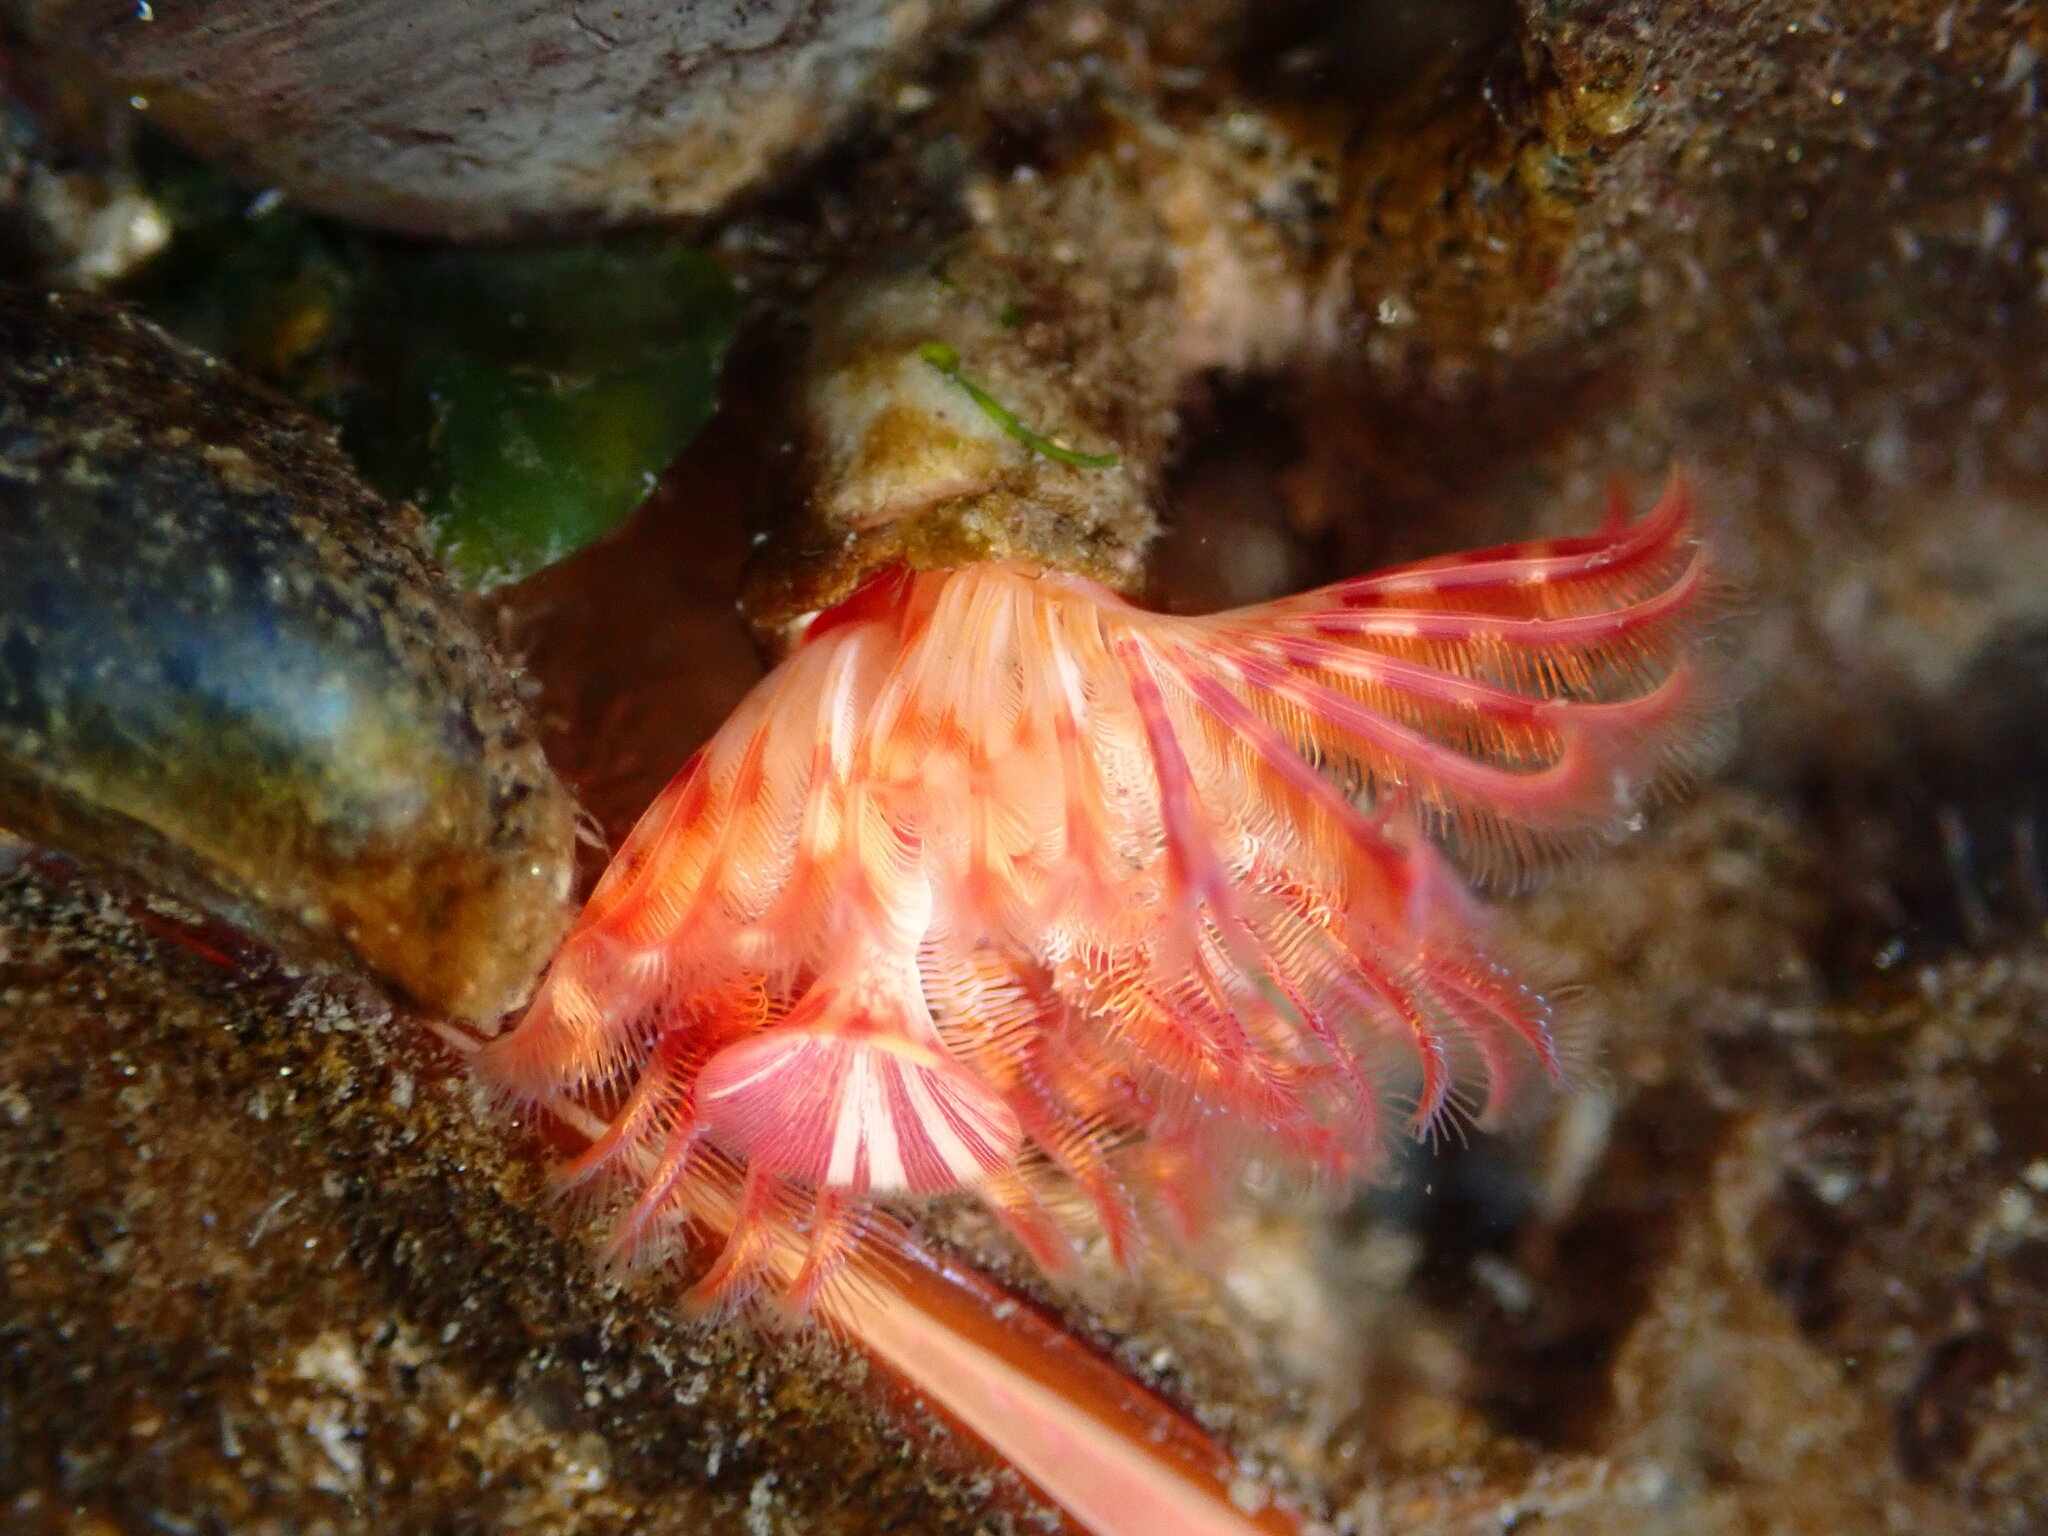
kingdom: Animalia
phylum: Annelida
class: Polychaeta
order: Sabellida
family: Serpulidae
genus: Serpula
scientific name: Serpula columbiana
